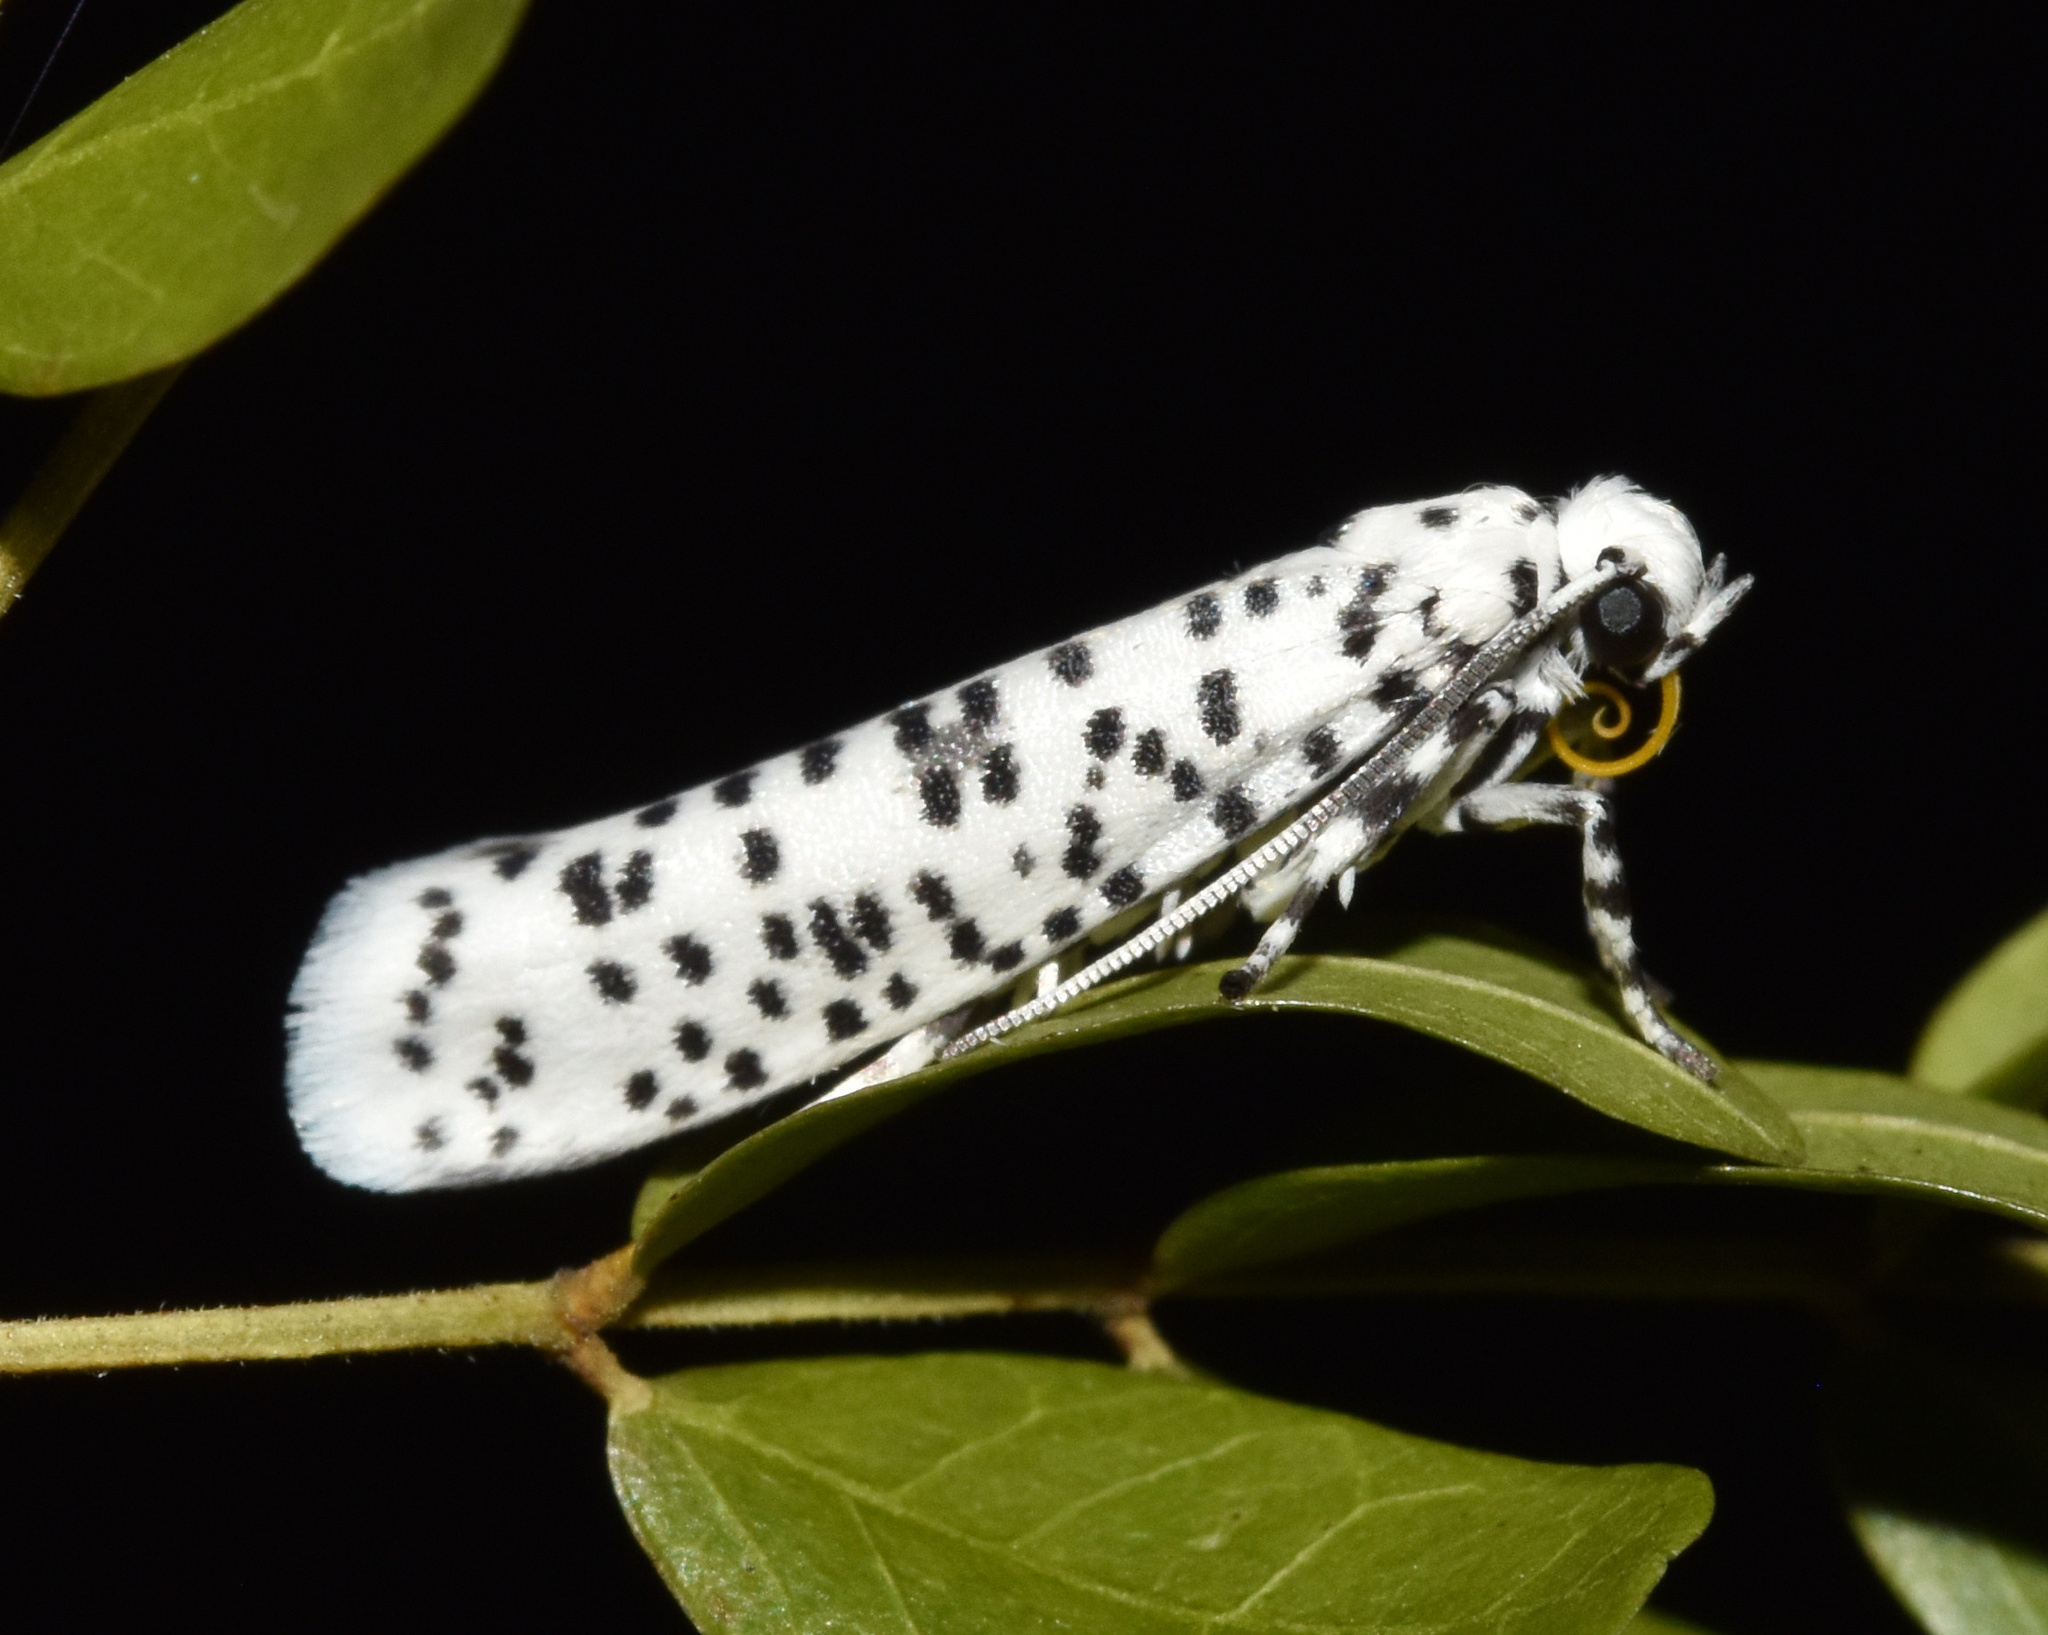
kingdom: Animalia
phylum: Arthropoda
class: Insecta
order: Lepidoptera
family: Yponomeutidae
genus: Yponomeuta
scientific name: Yponomeuta strigillata
